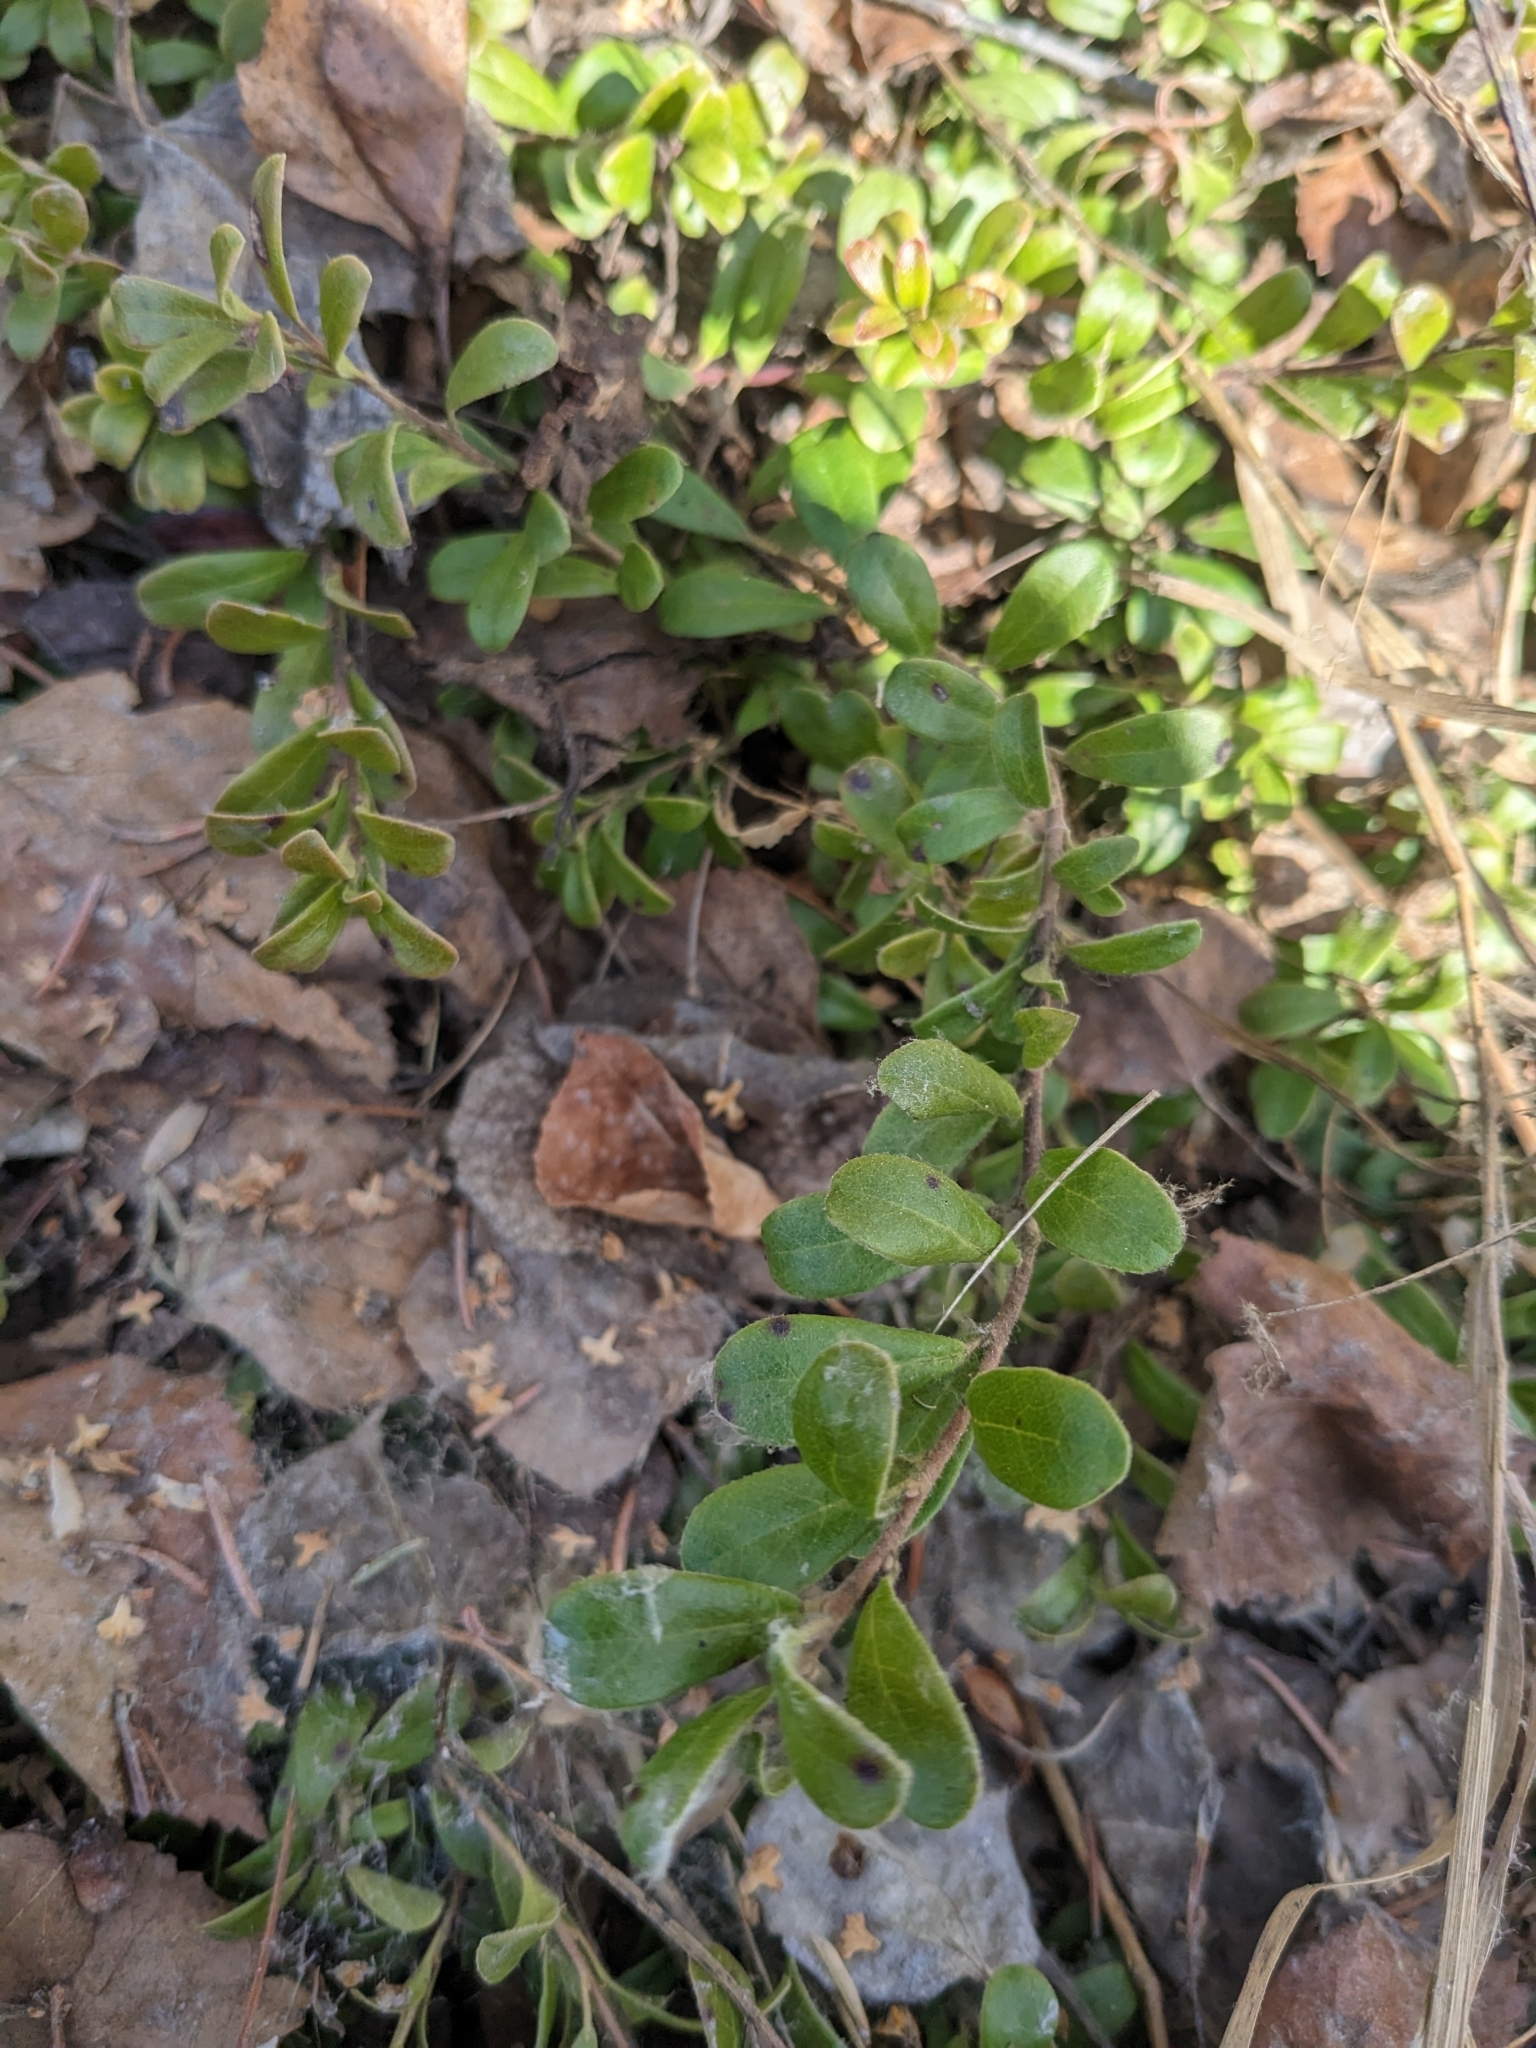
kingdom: Plantae
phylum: Tracheophyta
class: Magnoliopsida
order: Ericales
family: Ericaceae
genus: Arctostaphylos
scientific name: Arctostaphylos uva-ursi
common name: Bearberry
